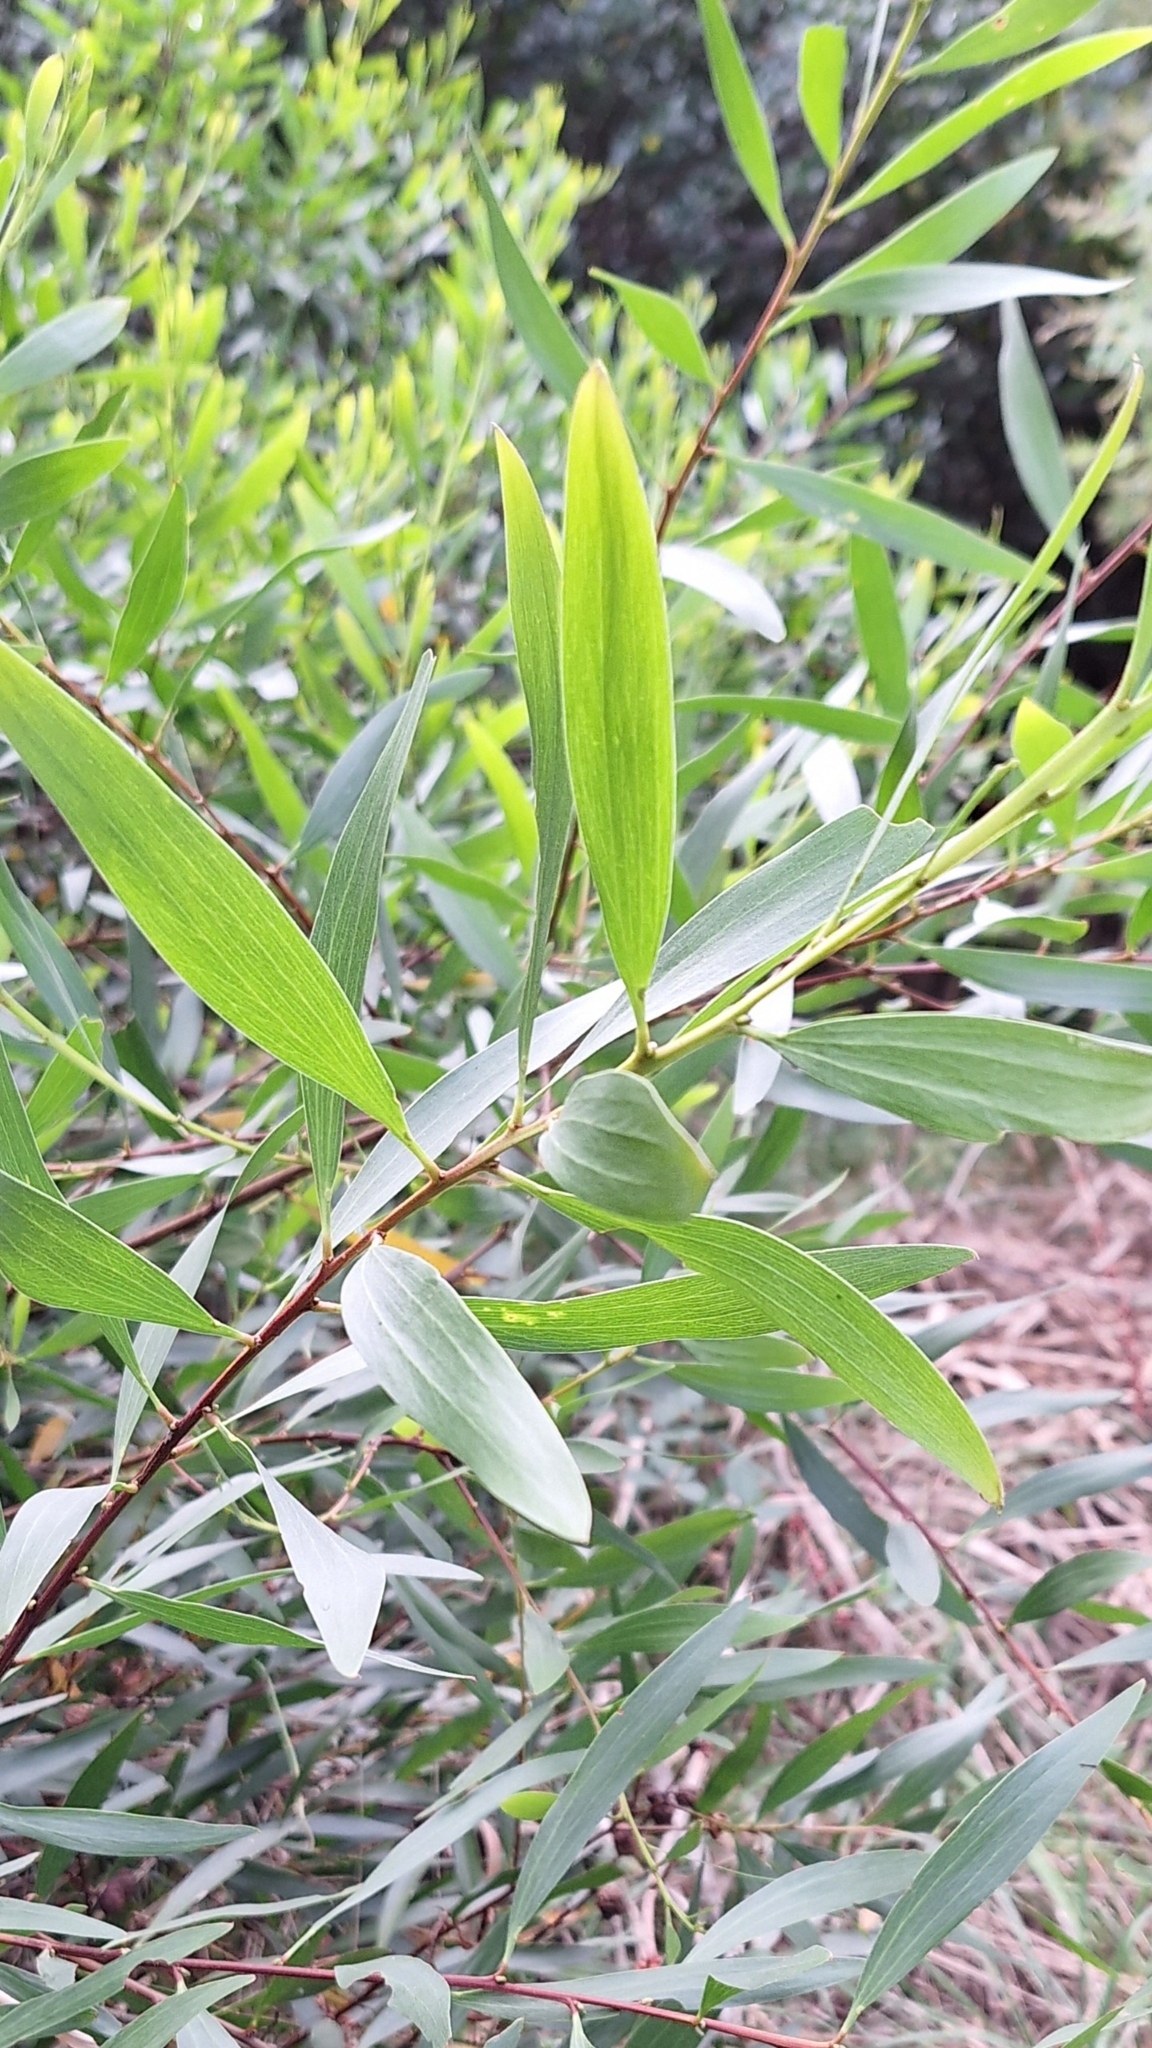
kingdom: Plantae
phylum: Tracheophyta
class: Magnoliopsida
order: Fabales
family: Fabaceae
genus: Acacia
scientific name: Acacia longifolia
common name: Sydney golden wattle
